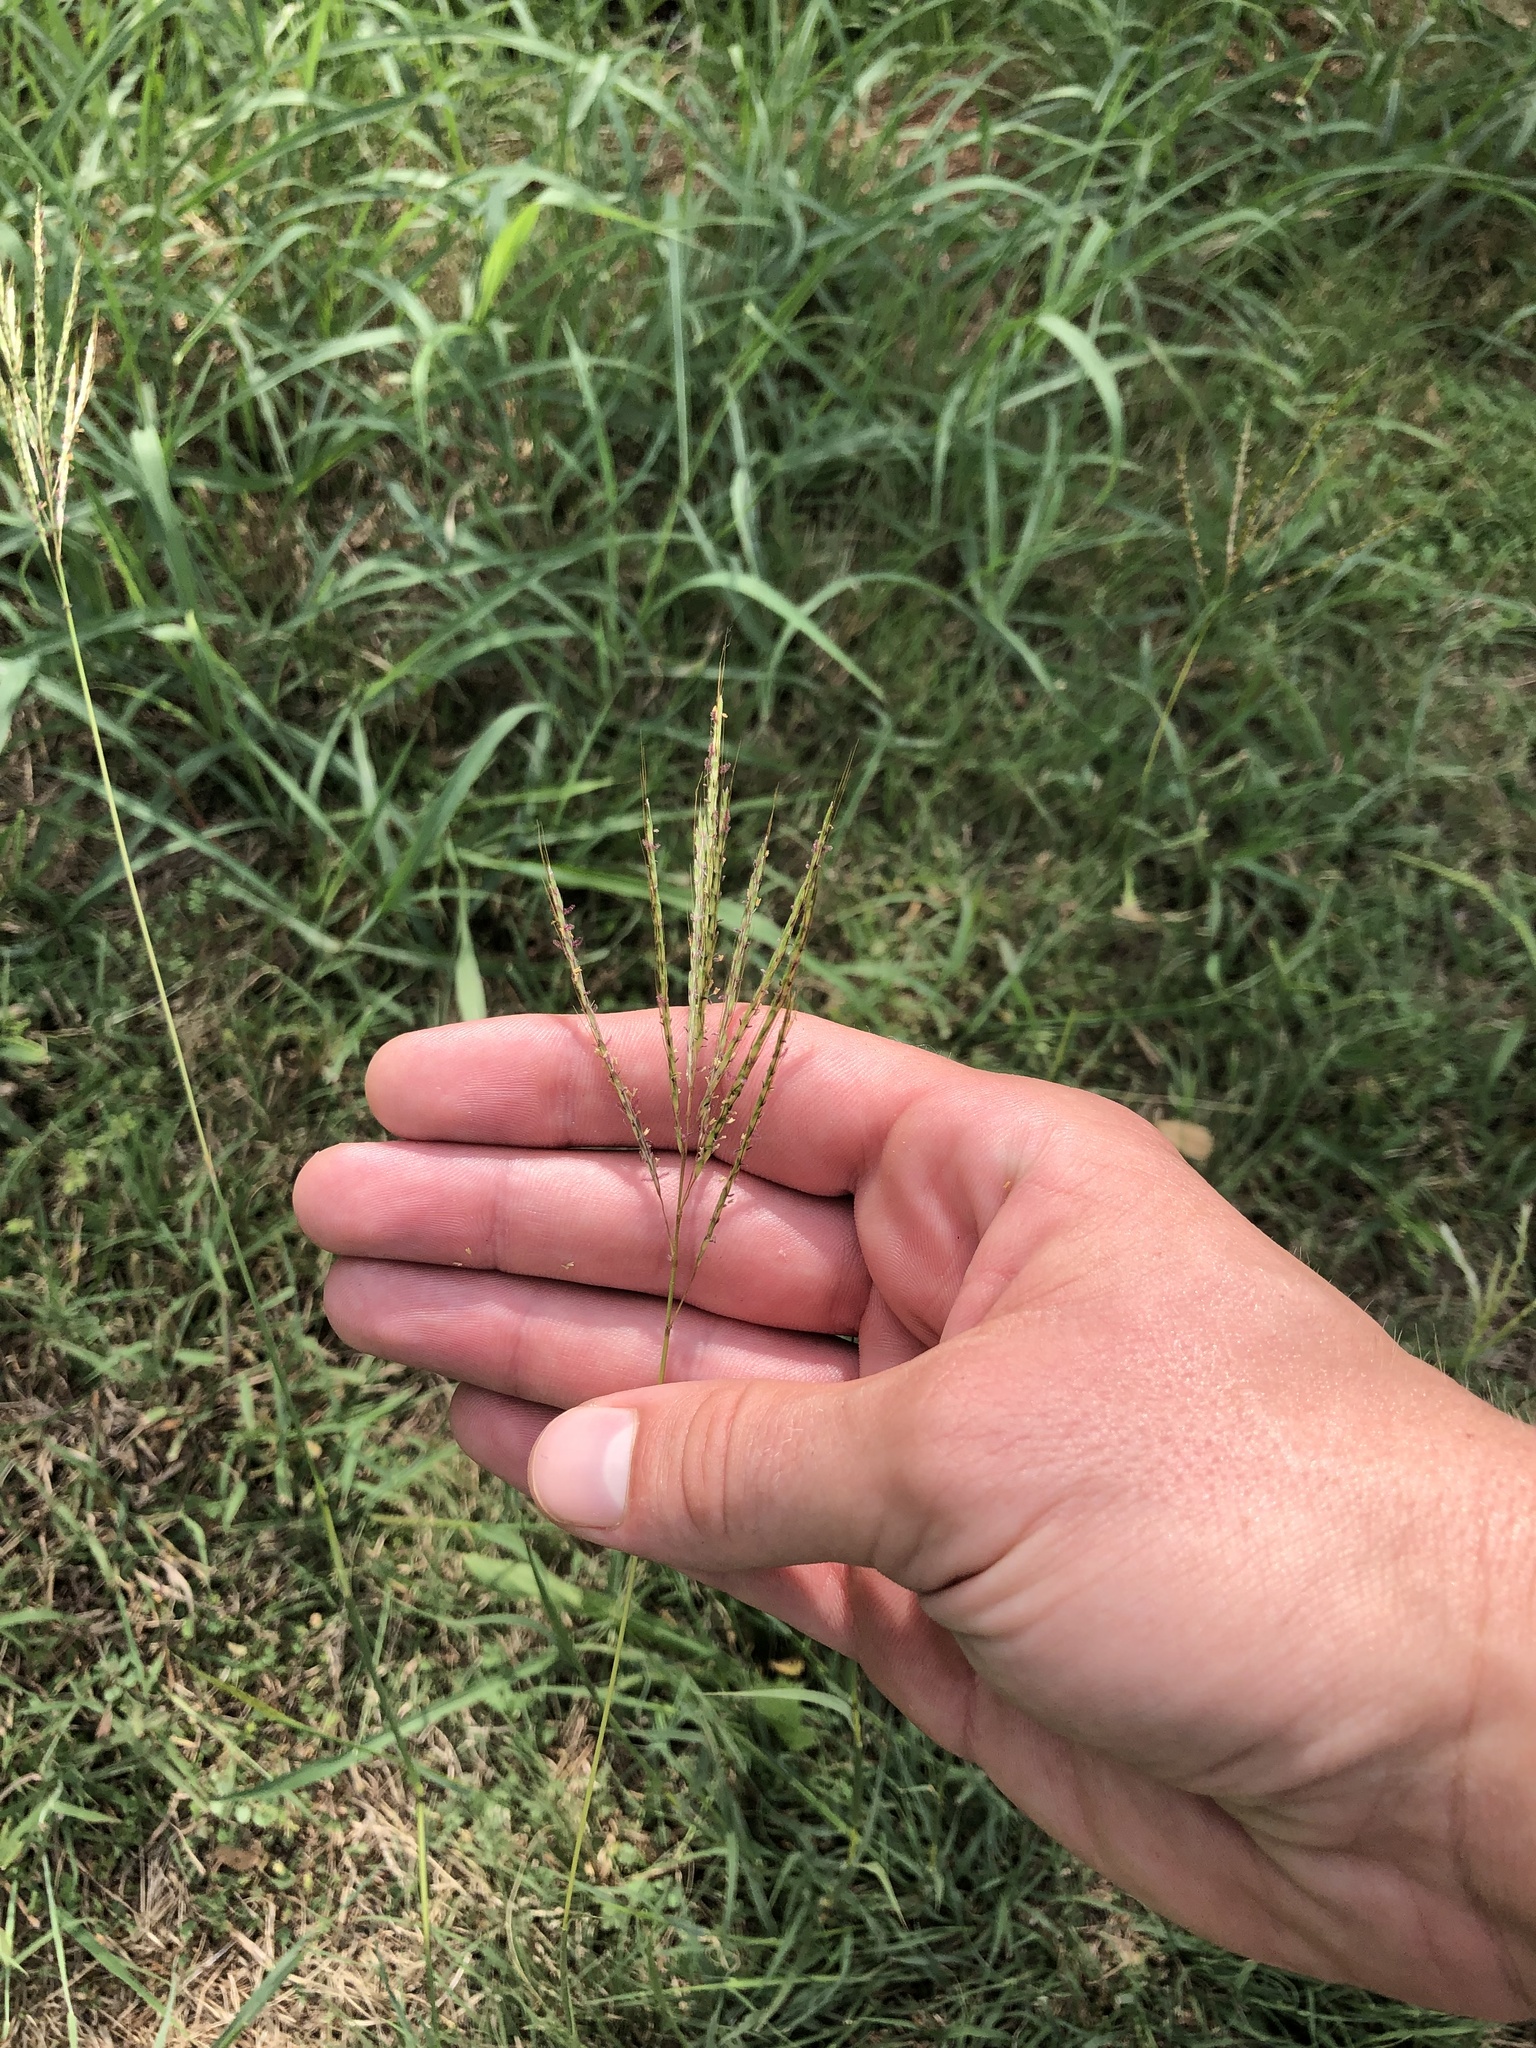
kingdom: Plantae
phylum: Tracheophyta
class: Liliopsida
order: Poales
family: Poaceae
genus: Bothriochloa
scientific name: Bothriochloa ischaemum
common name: Yellow bluestem
